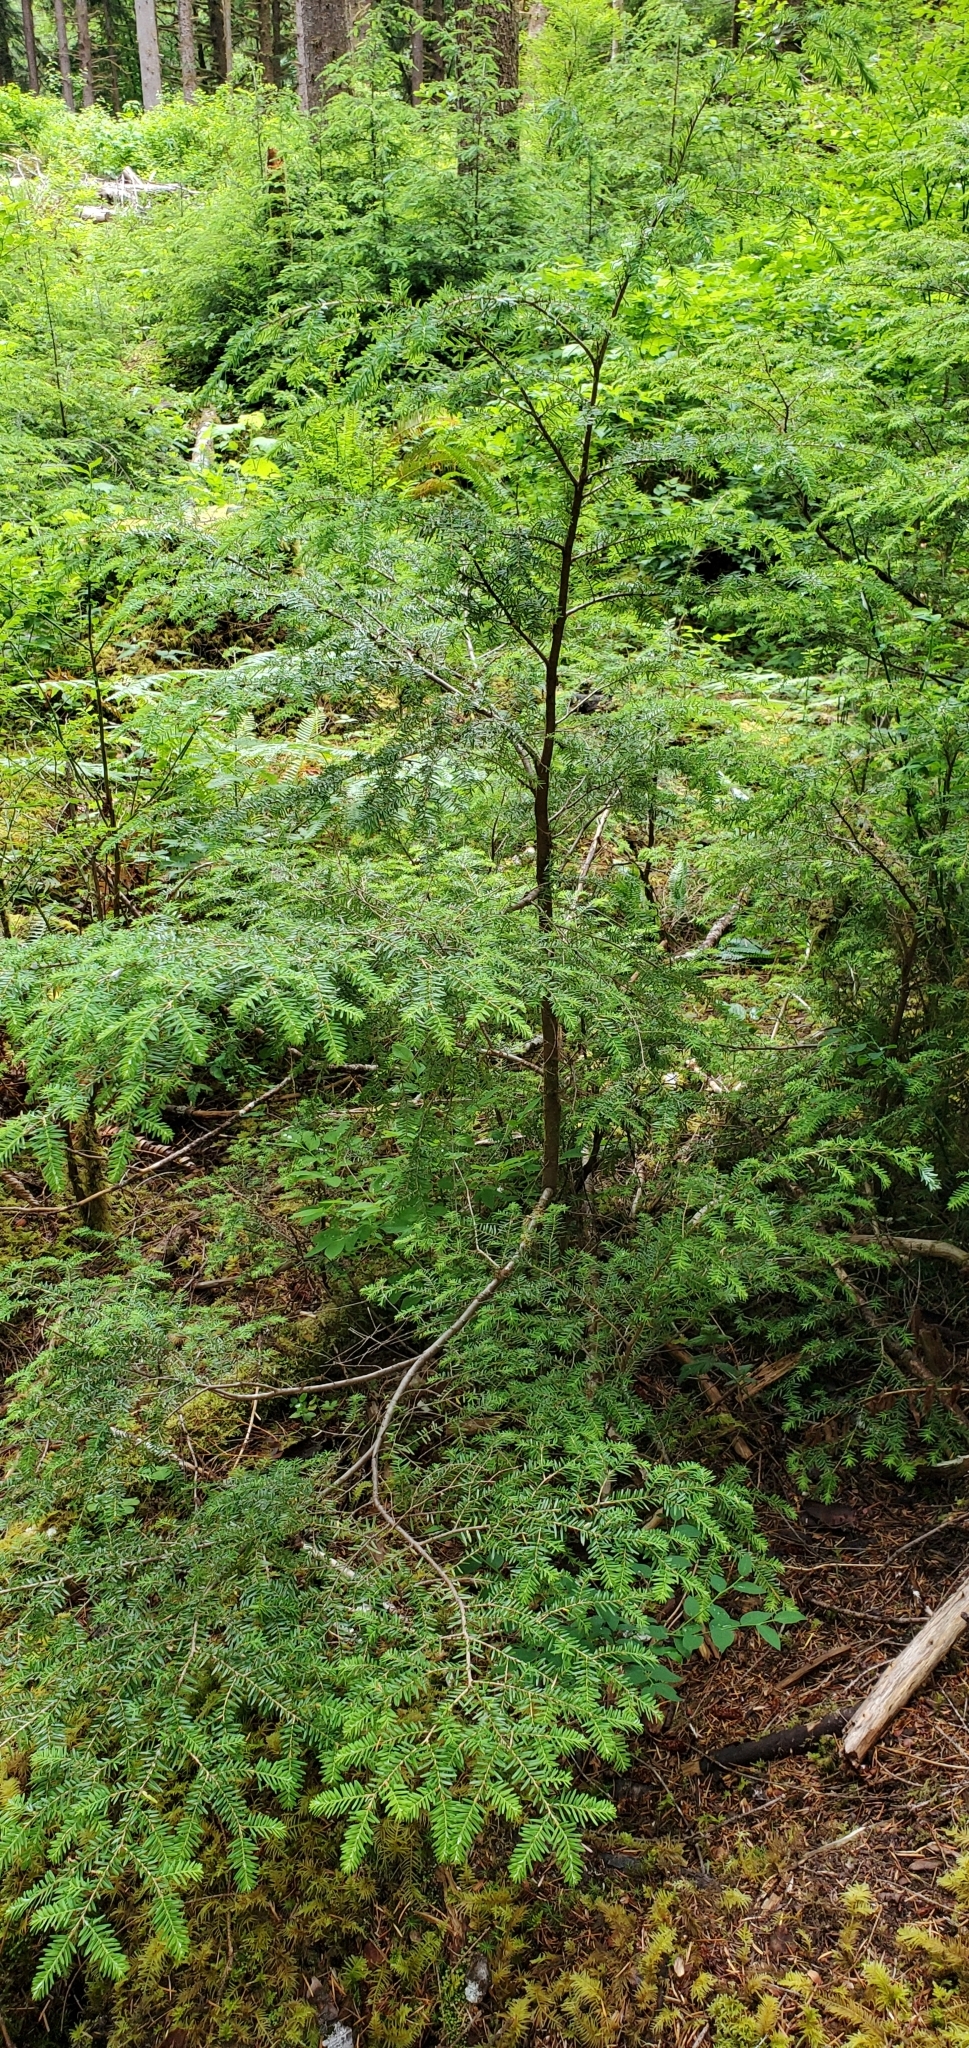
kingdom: Plantae
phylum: Tracheophyta
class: Pinopsida
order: Pinales
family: Pinaceae
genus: Tsuga
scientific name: Tsuga heterophylla
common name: Western hemlock
